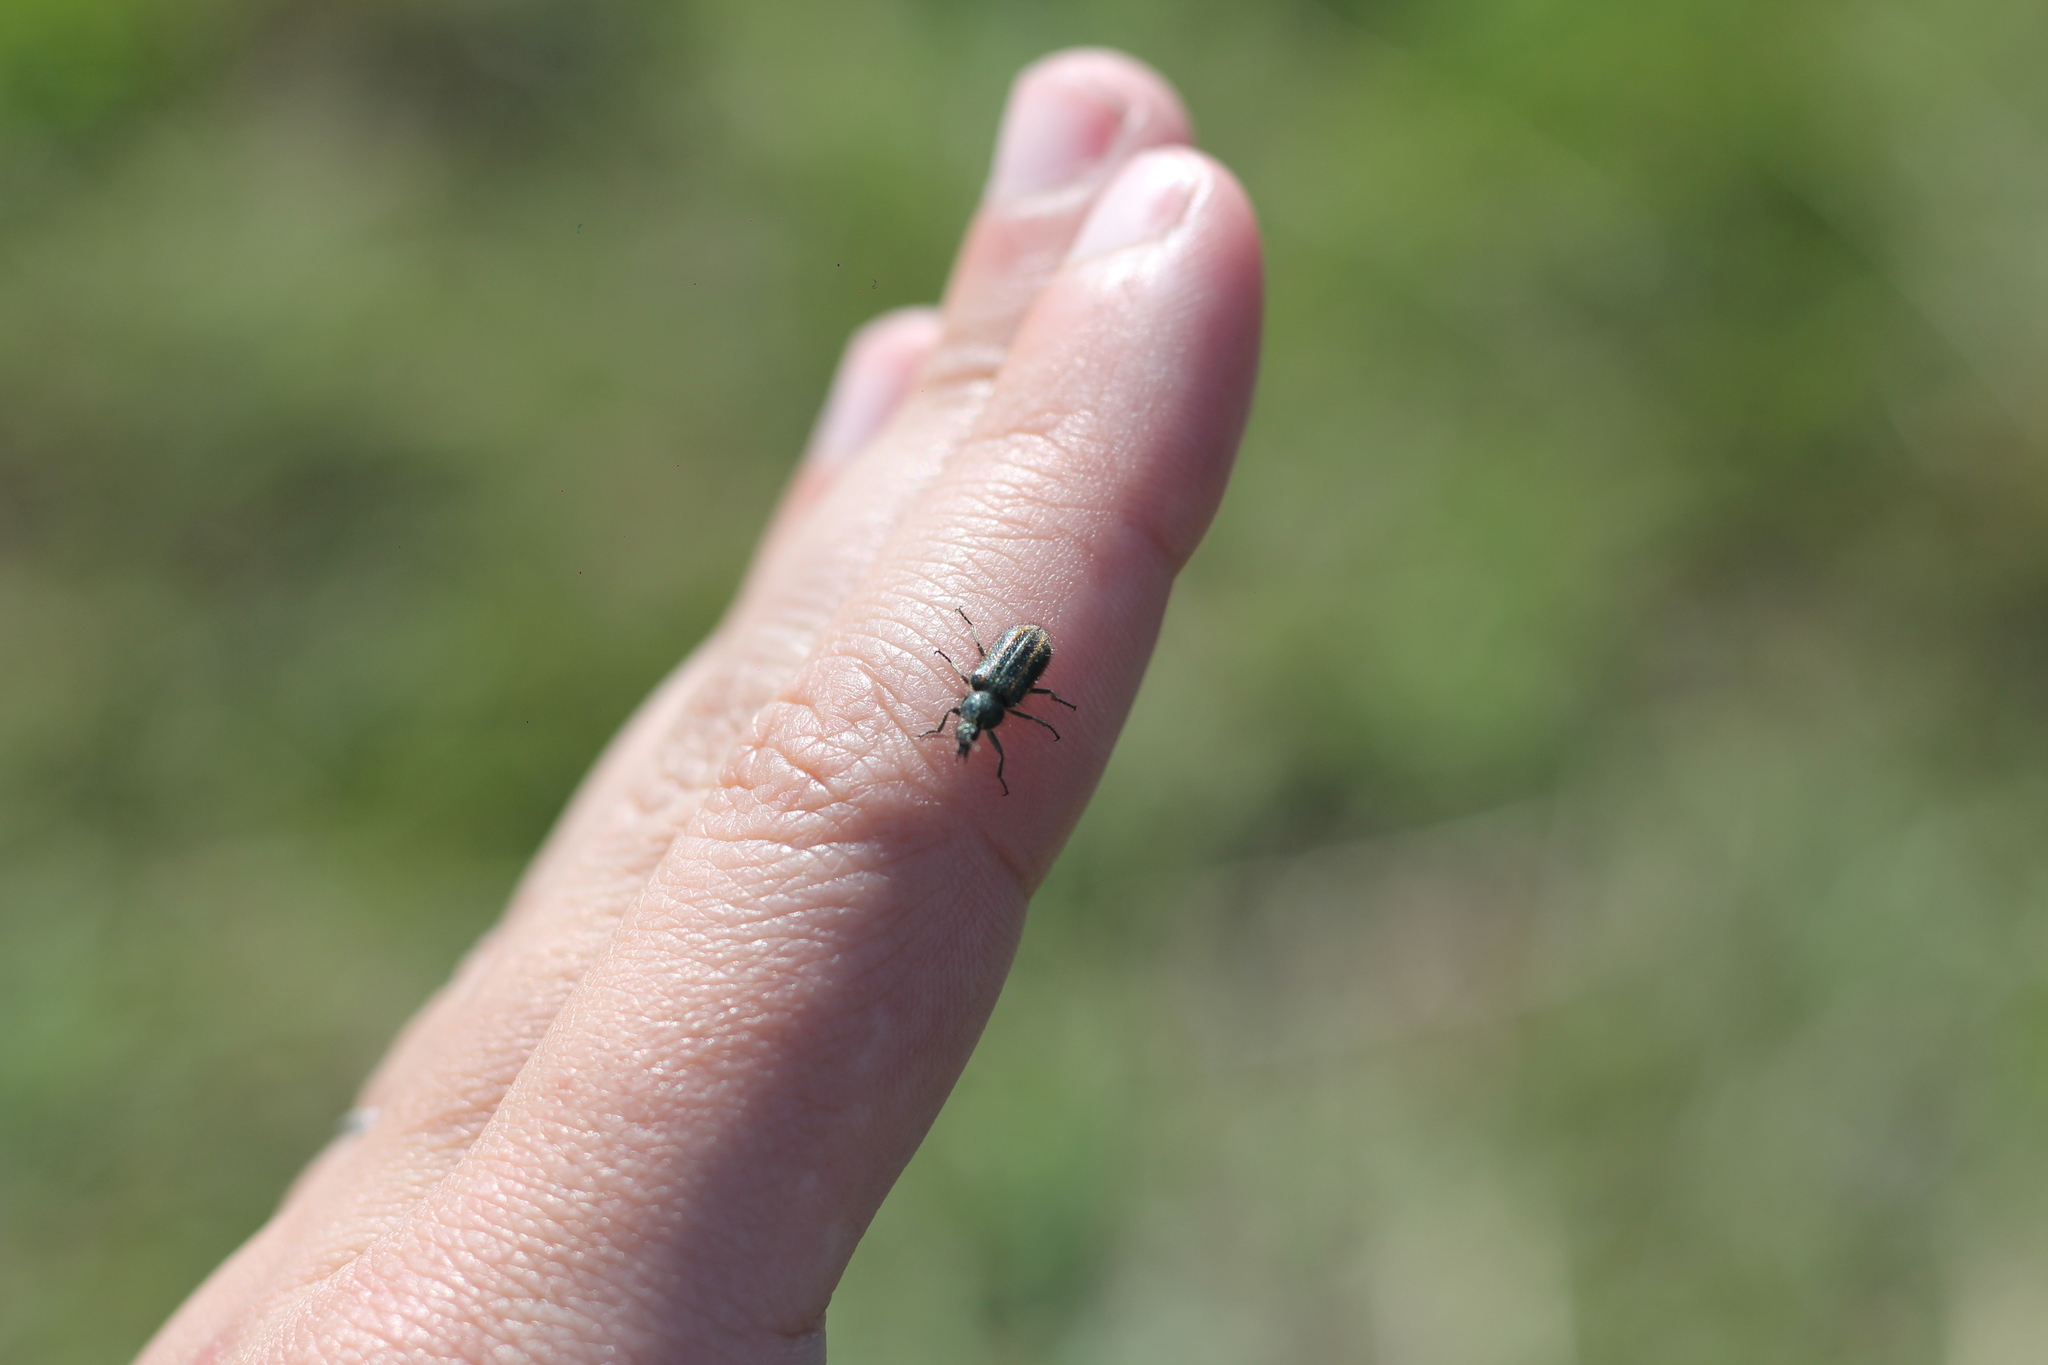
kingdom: Animalia
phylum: Arthropoda
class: Insecta
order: Coleoptera
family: Melyridae
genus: Astylus
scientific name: Astylus
